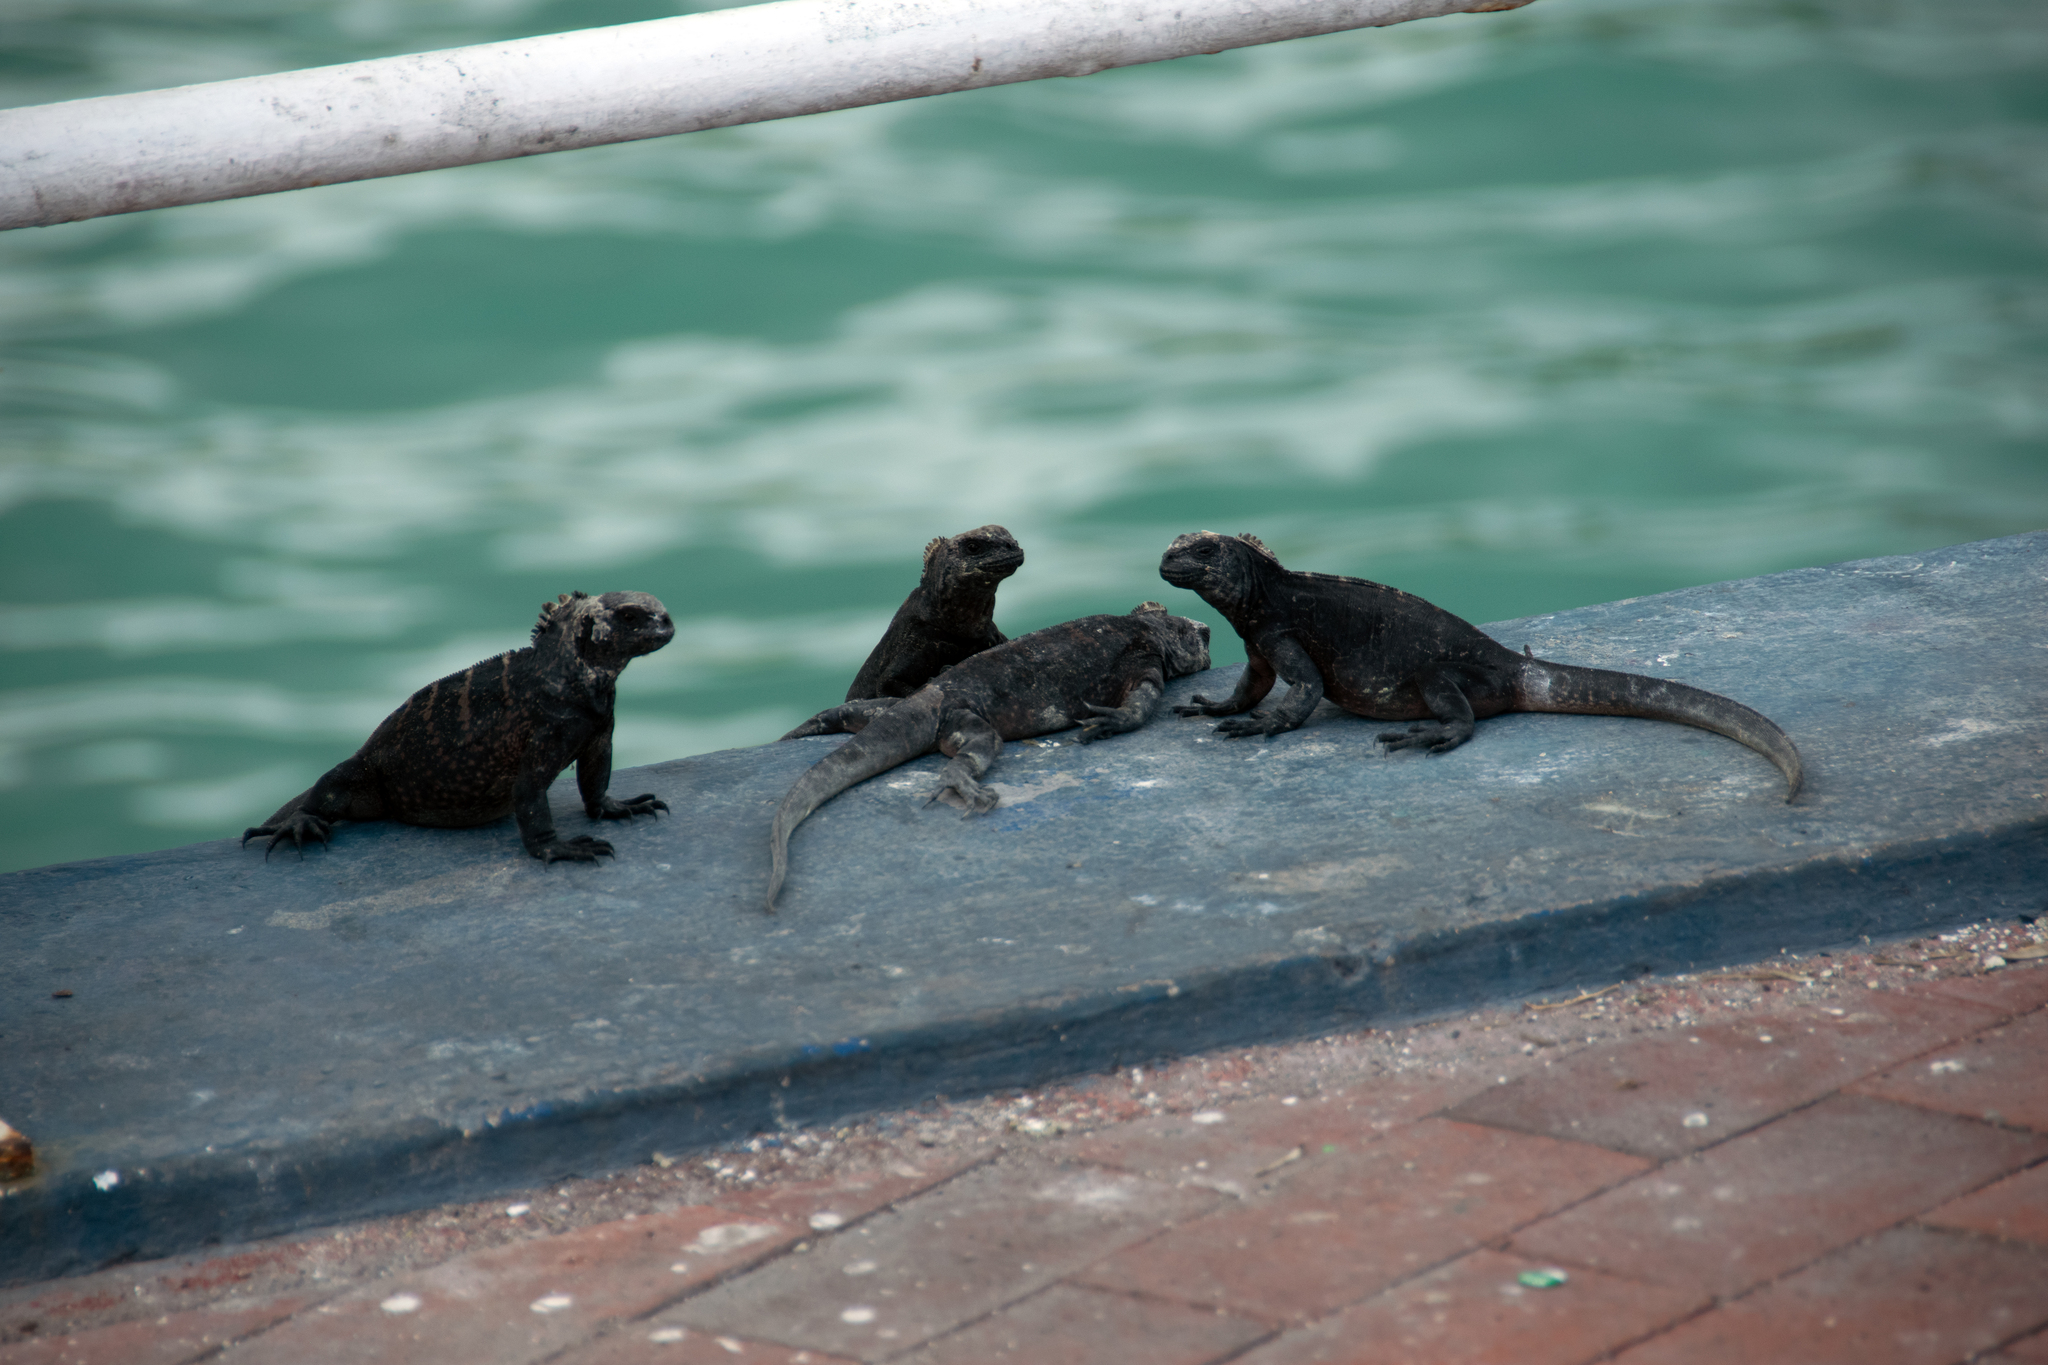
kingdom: Animalia
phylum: Chordata
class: Squamata
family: Iguanidae
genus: Amblyrhynchus
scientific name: Amblyrhynchus cristatus
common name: Marine iguana
